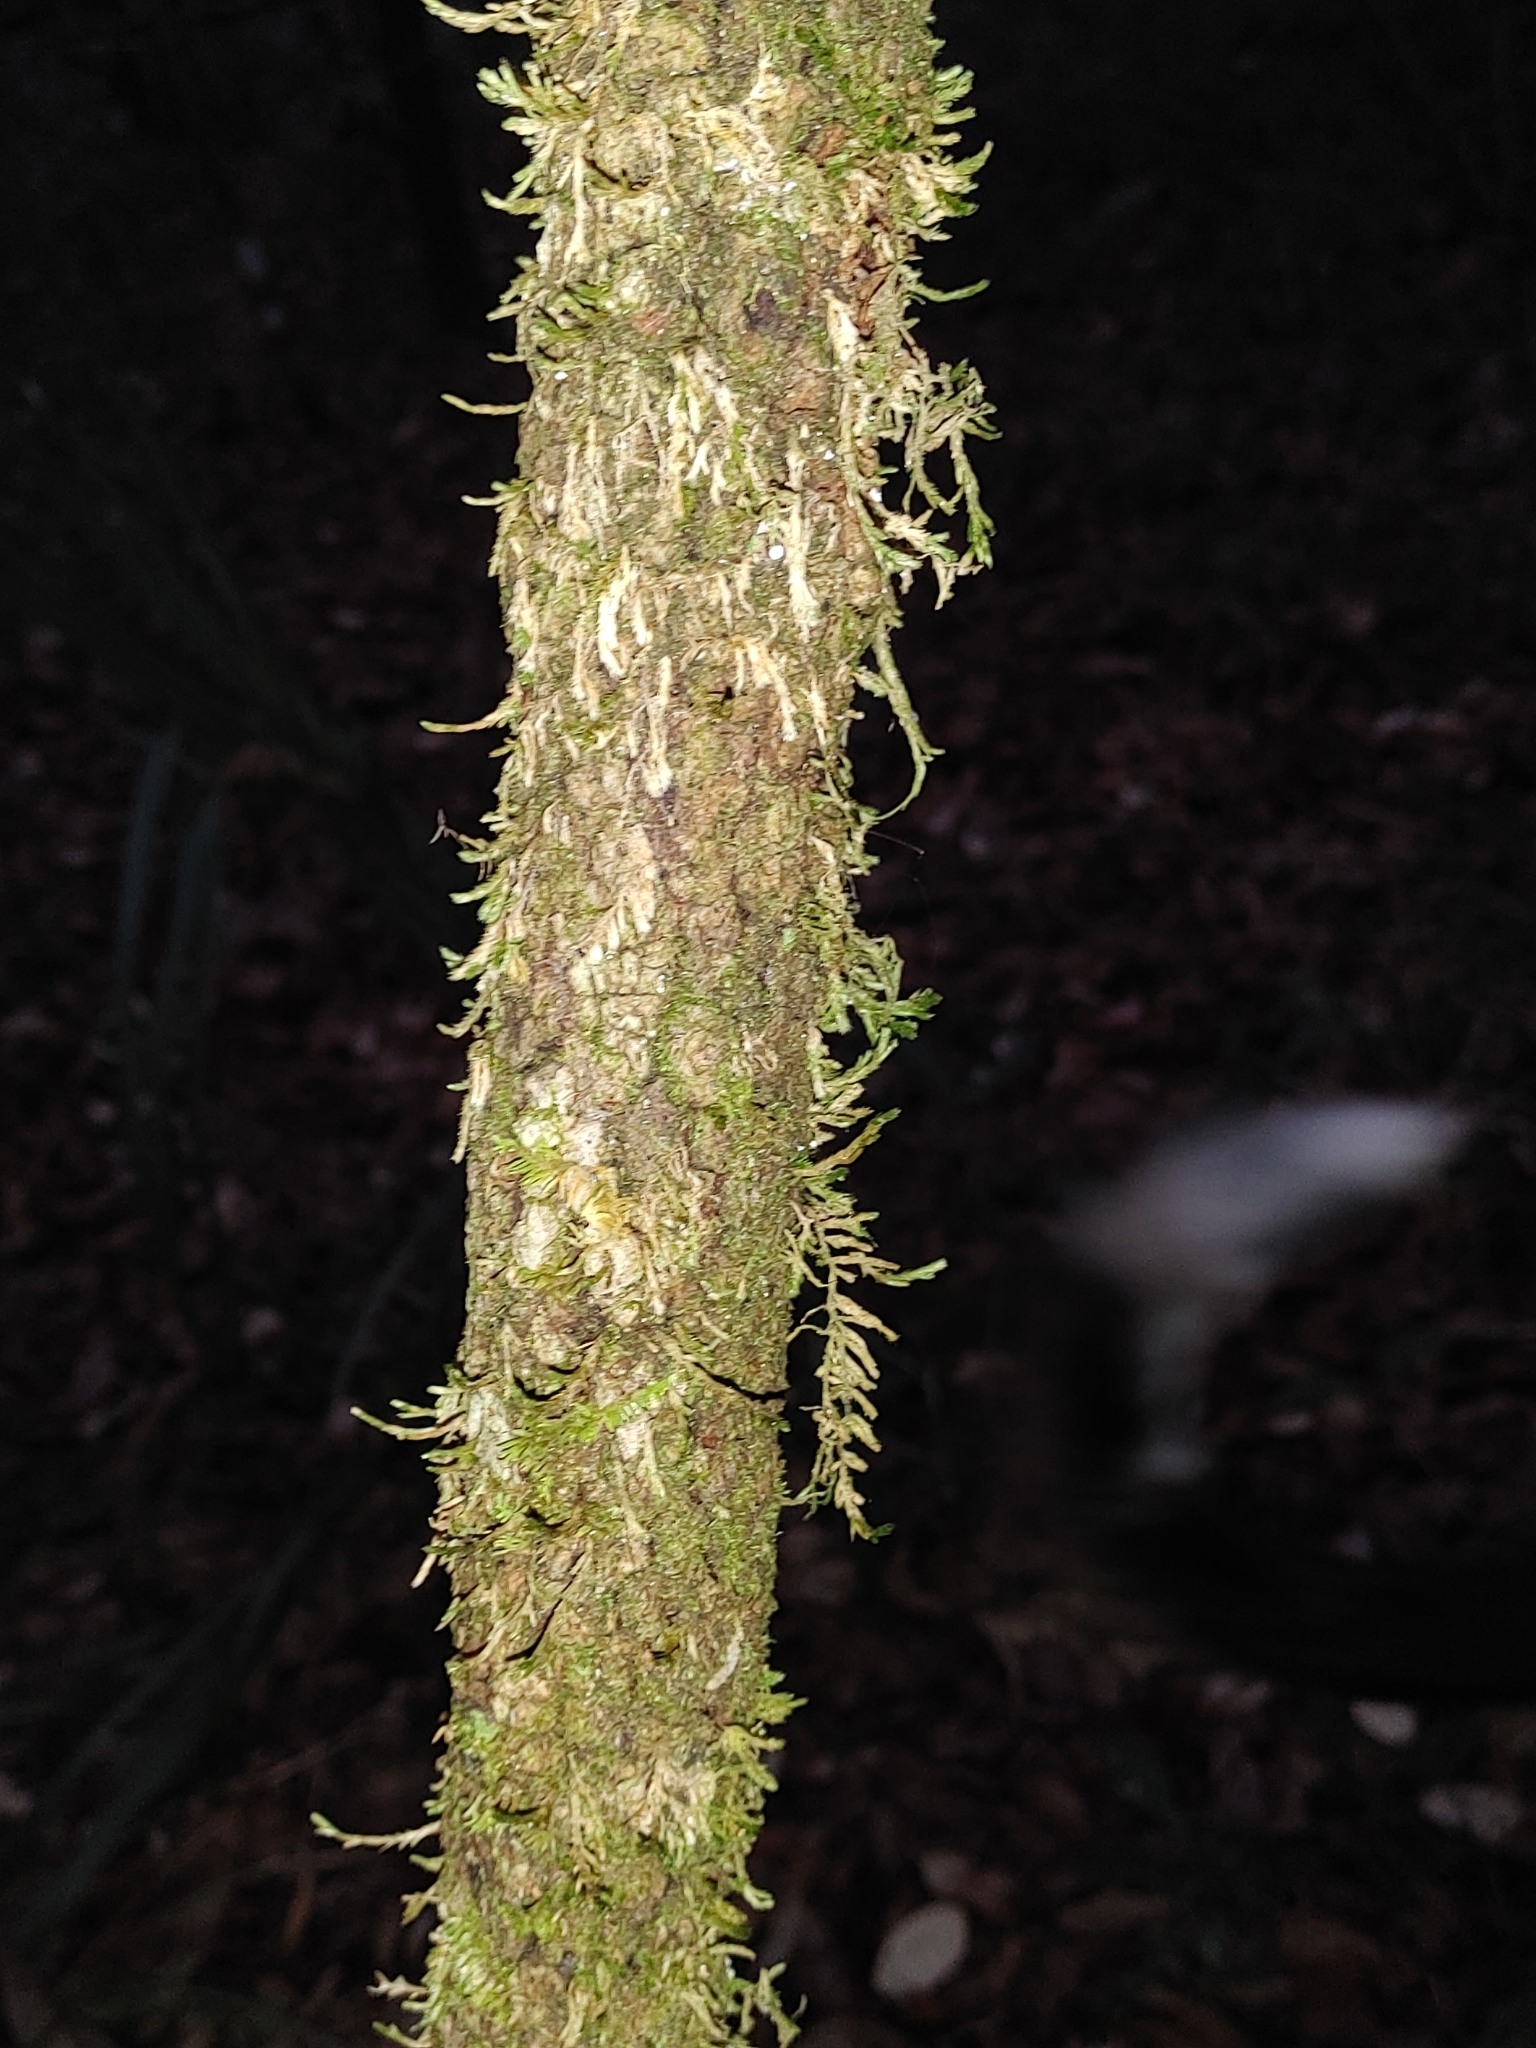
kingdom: Plantae
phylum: Tracheophyta
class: Magnoliopsida
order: Dipsacales
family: Viburnaceae
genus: Viburnum
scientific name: Viburnum rufidulum
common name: Blue haw
